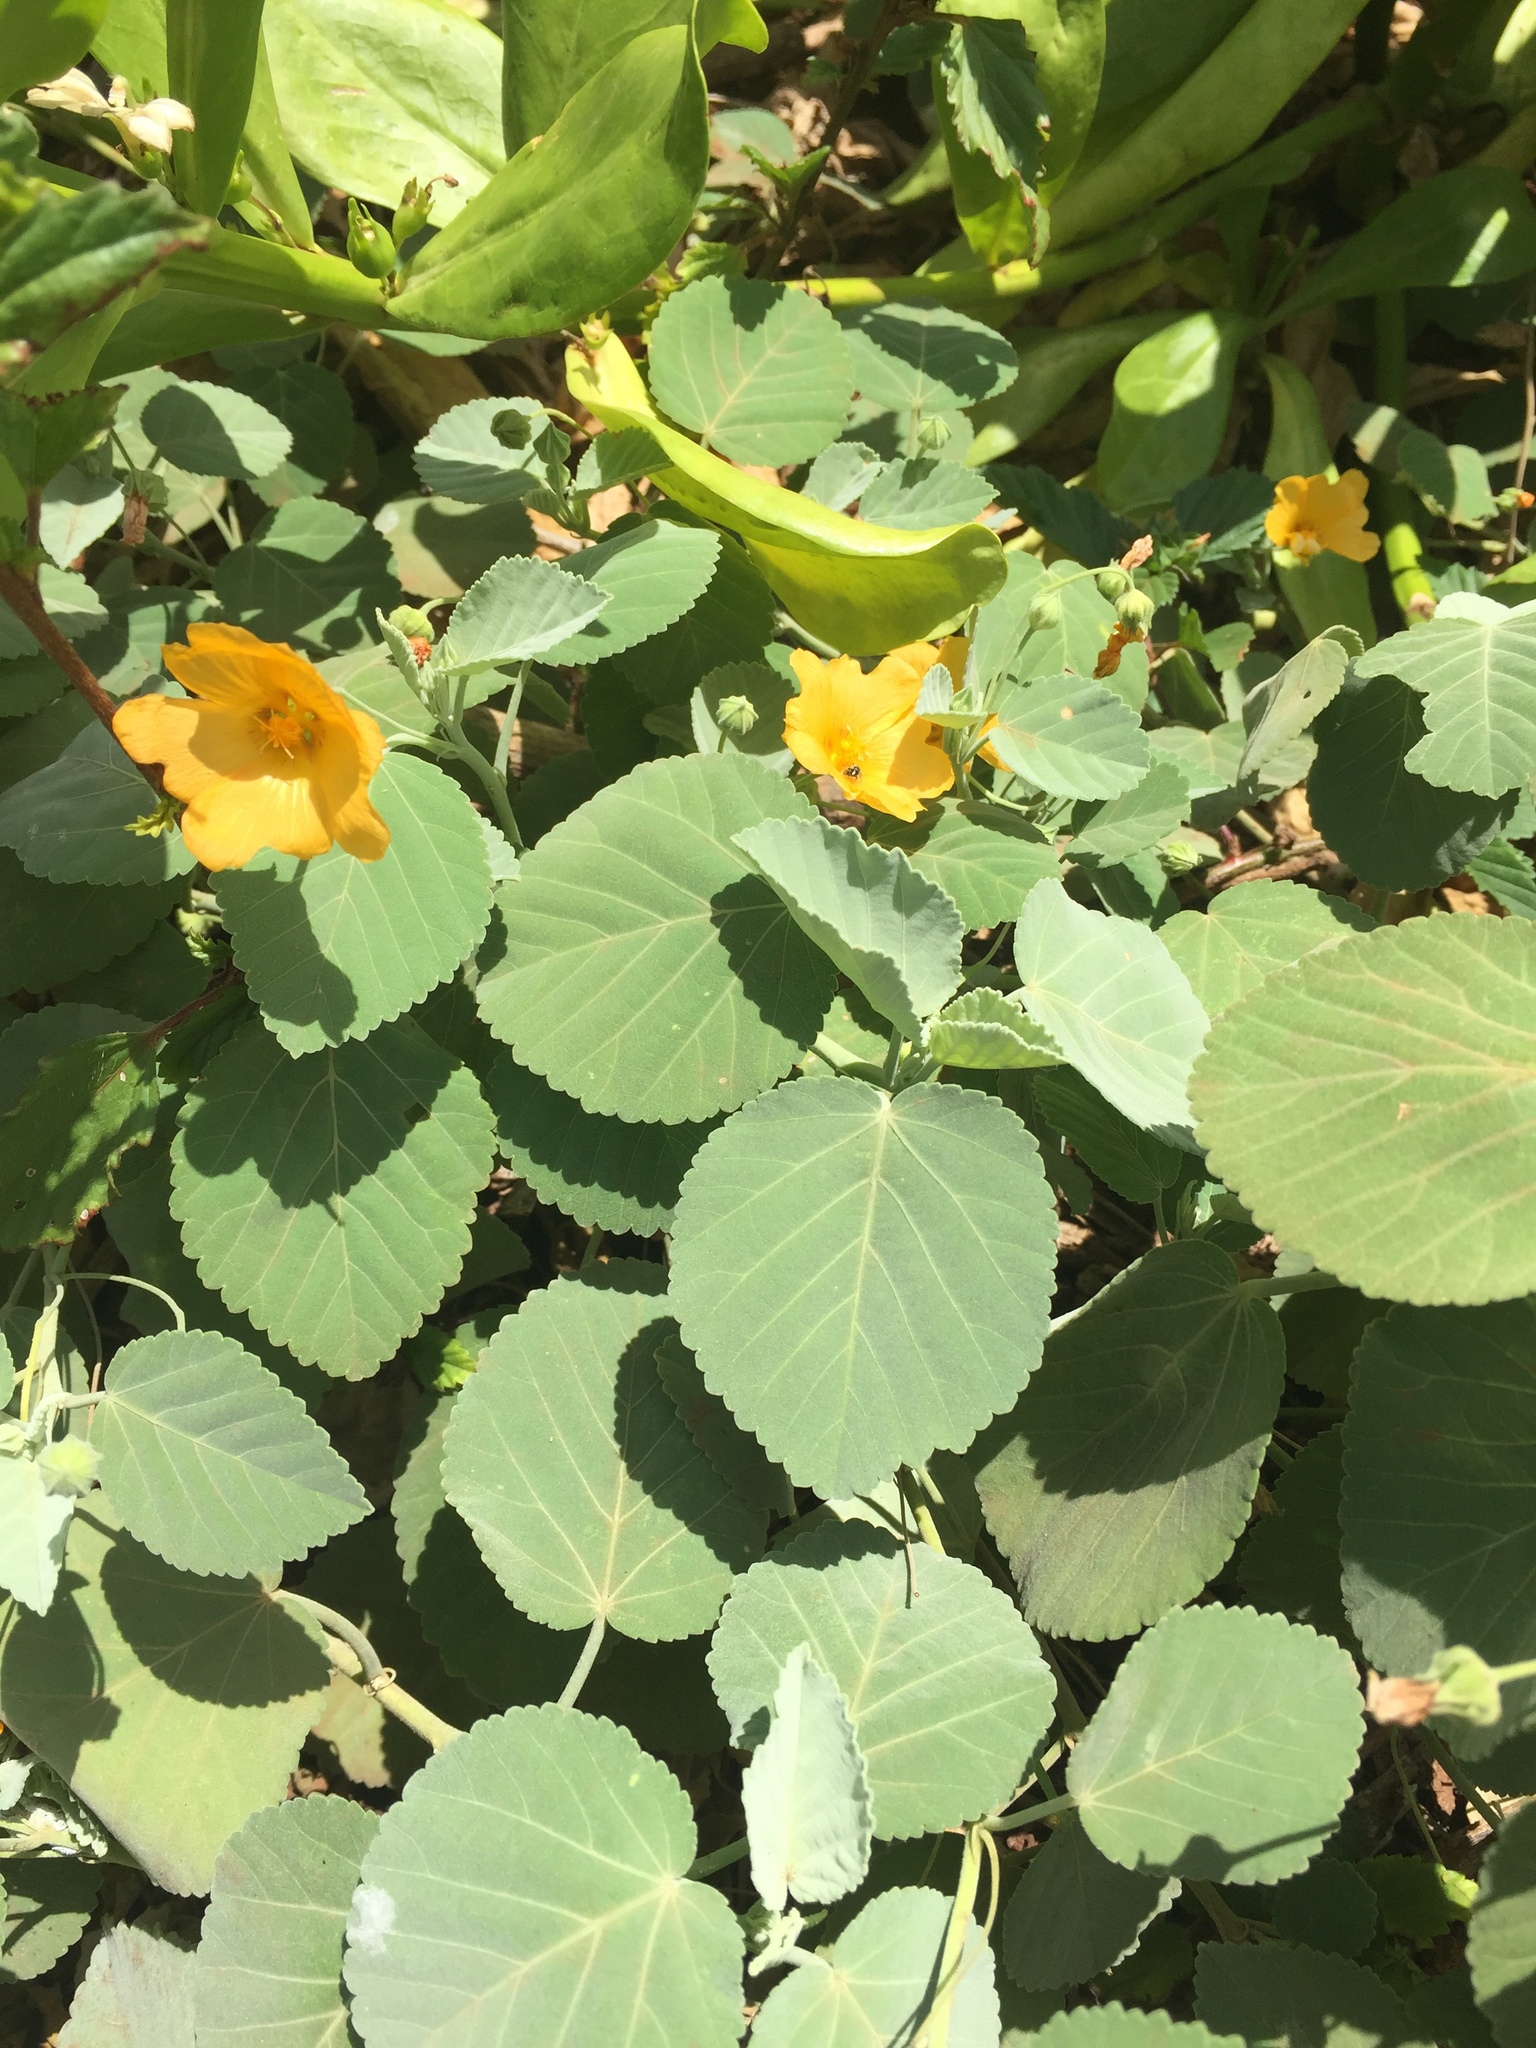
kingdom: Plantae
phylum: Tracheophyta
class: Magnoliopsida
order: Malvales
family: Malvaceae
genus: Sida
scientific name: Sida fallax
